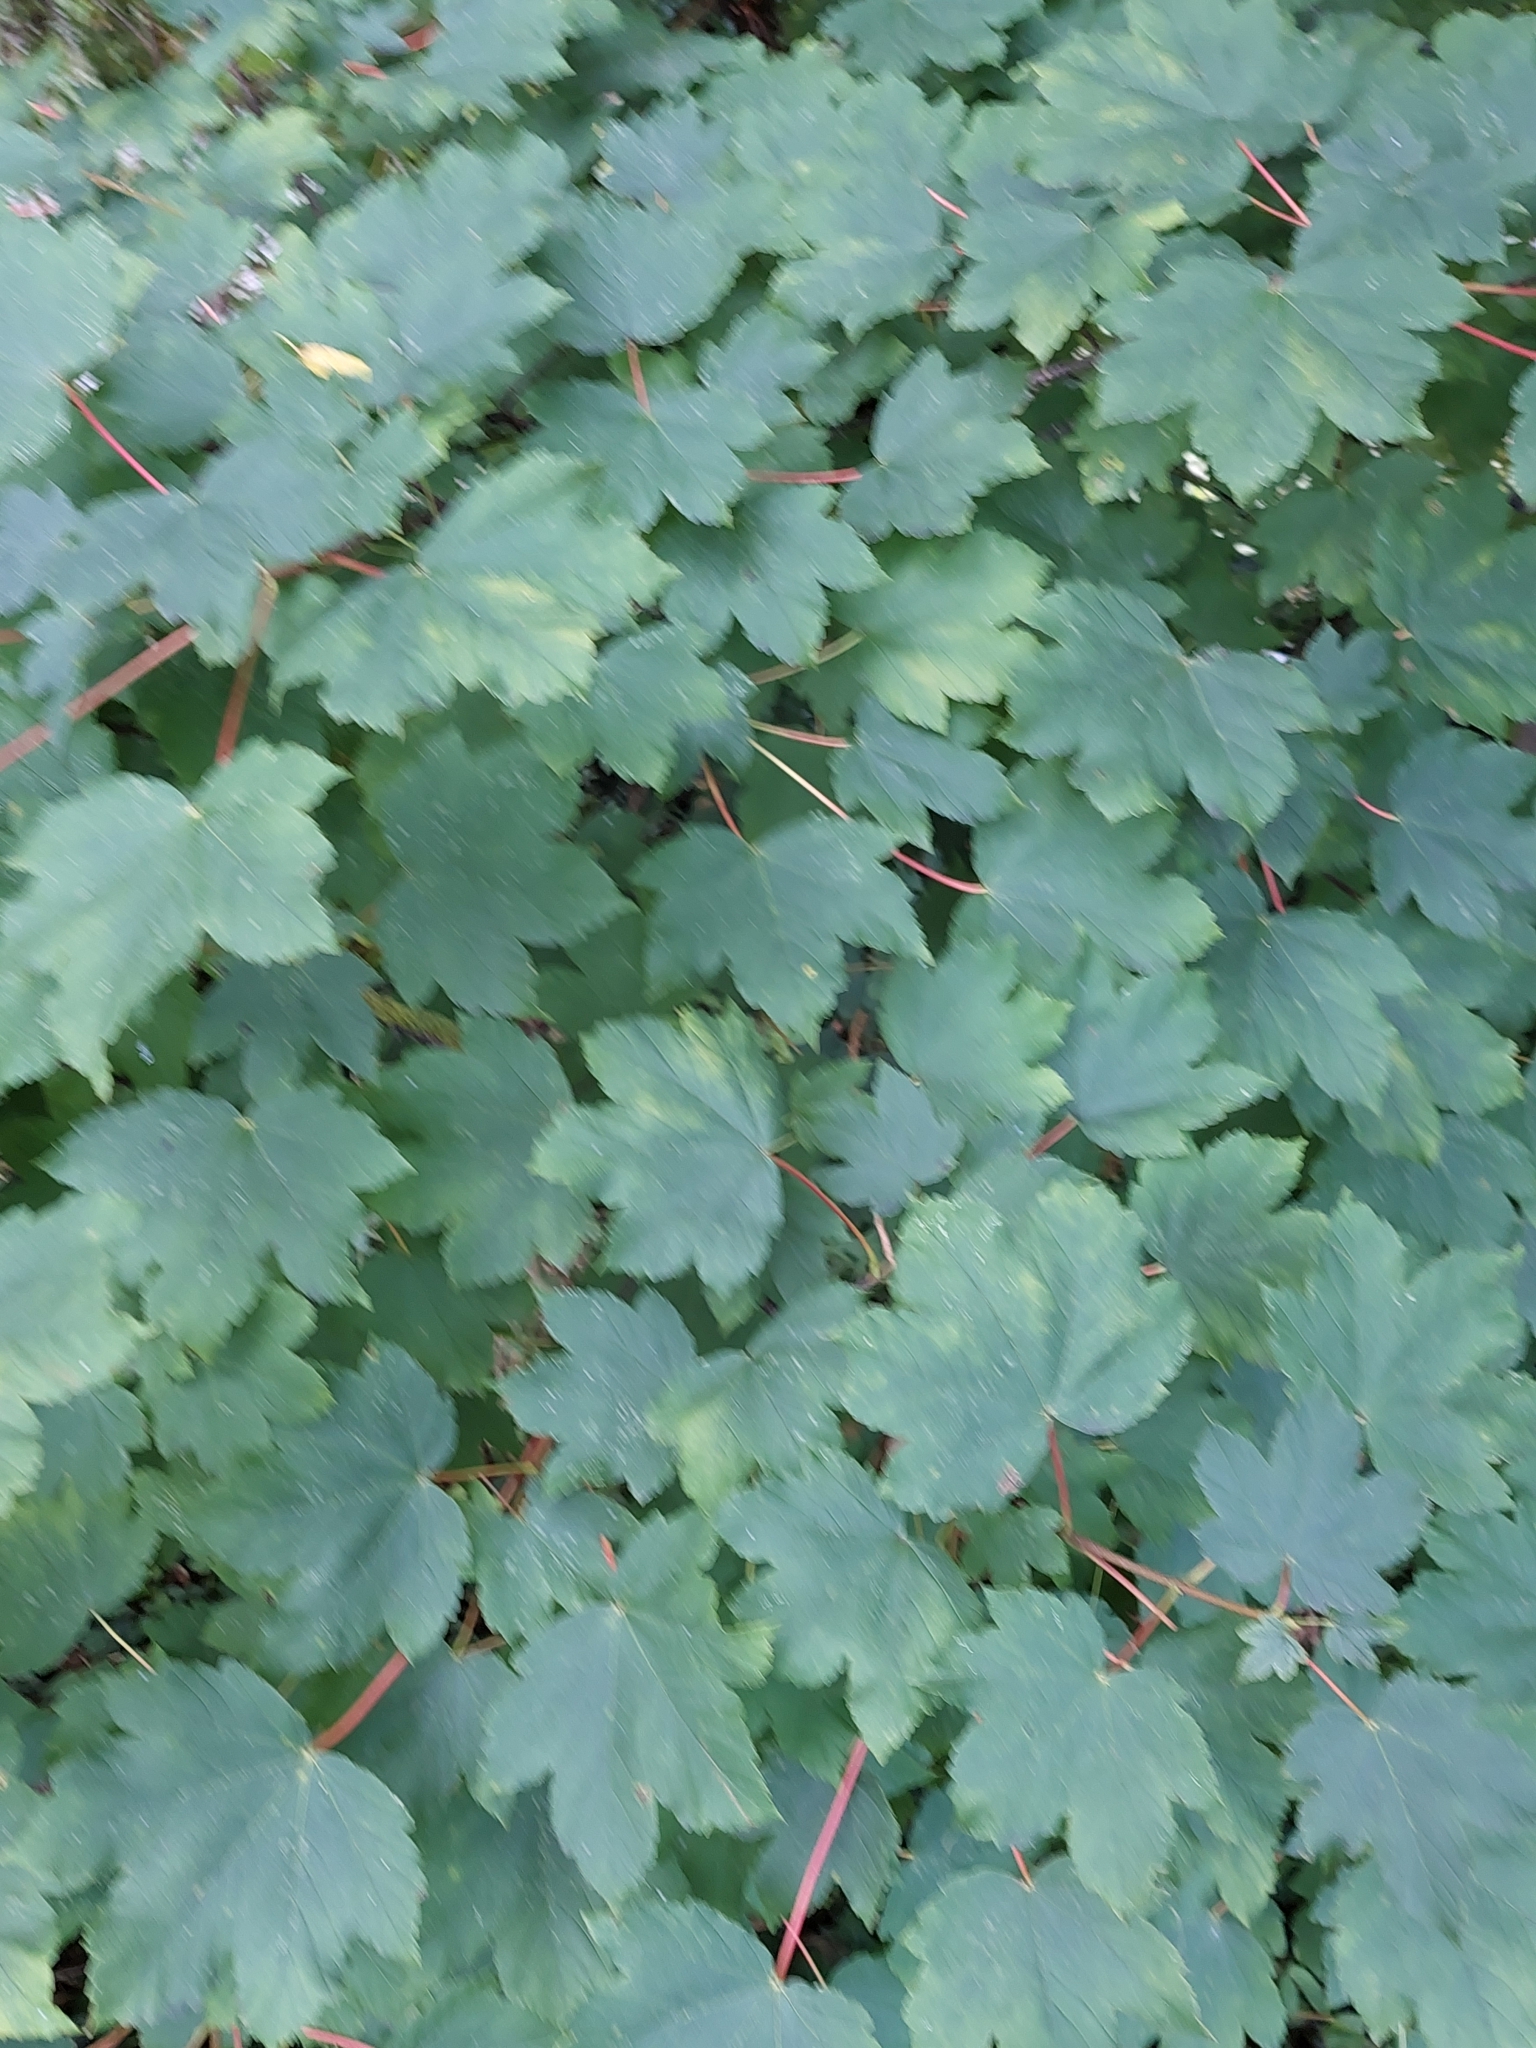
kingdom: Plantae
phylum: Tracheophyta
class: Magnoliopsida
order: Sapindales
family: Sapindaceae
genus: Acer
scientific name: Acer pseudoplatanus
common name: Sycamore
